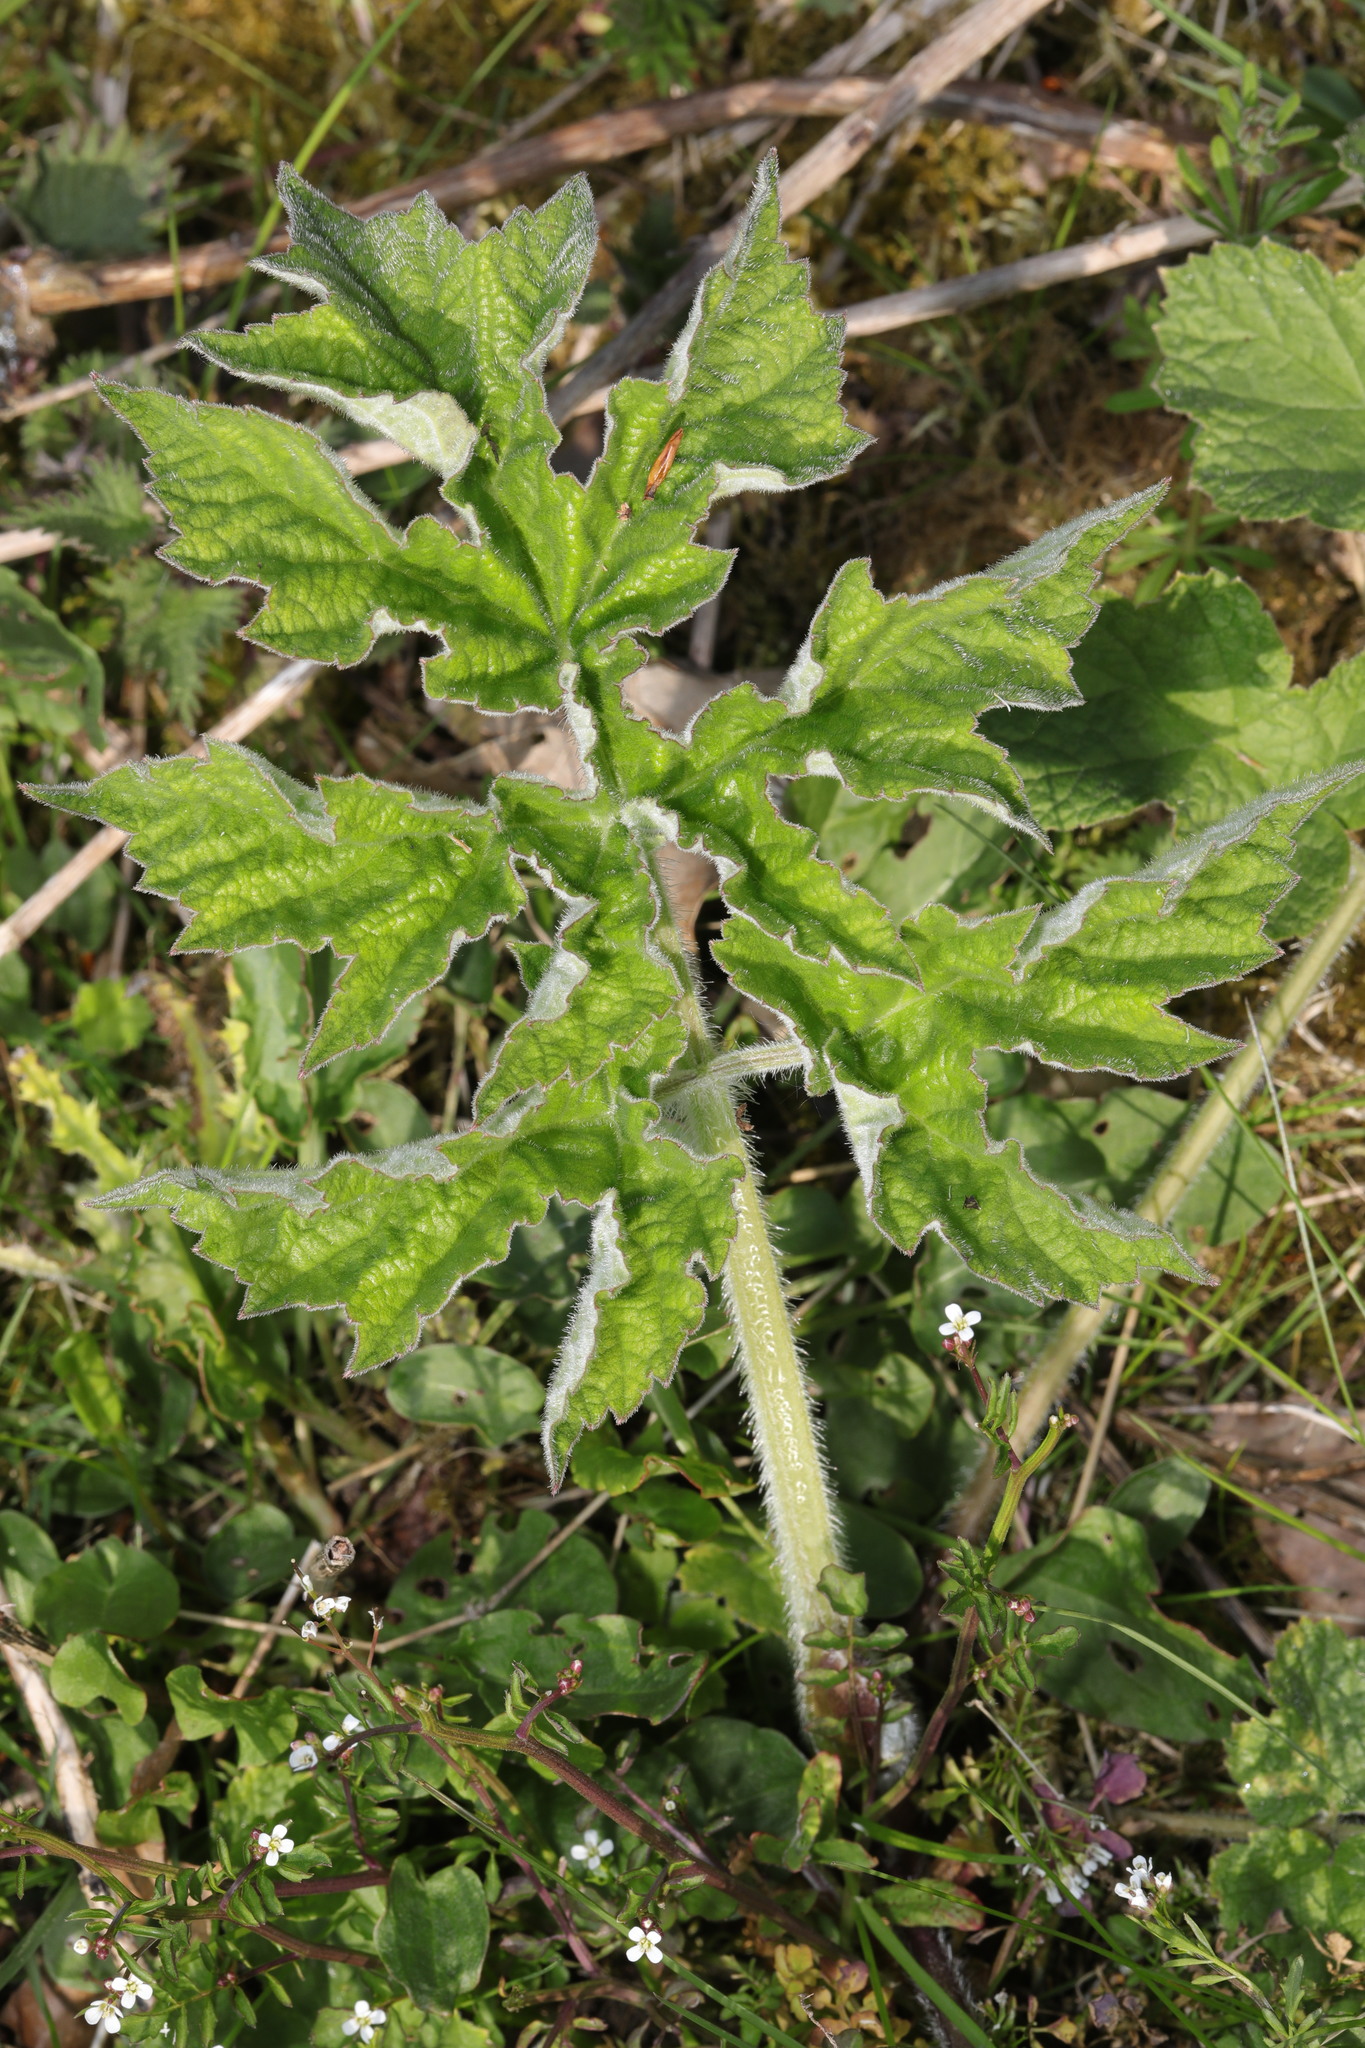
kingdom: Plantae
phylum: Tracheophyta
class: Magnoliopsida
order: Apiales
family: Apiaceae
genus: Heracleum
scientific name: Heracleum sphondylium
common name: Hogweed
